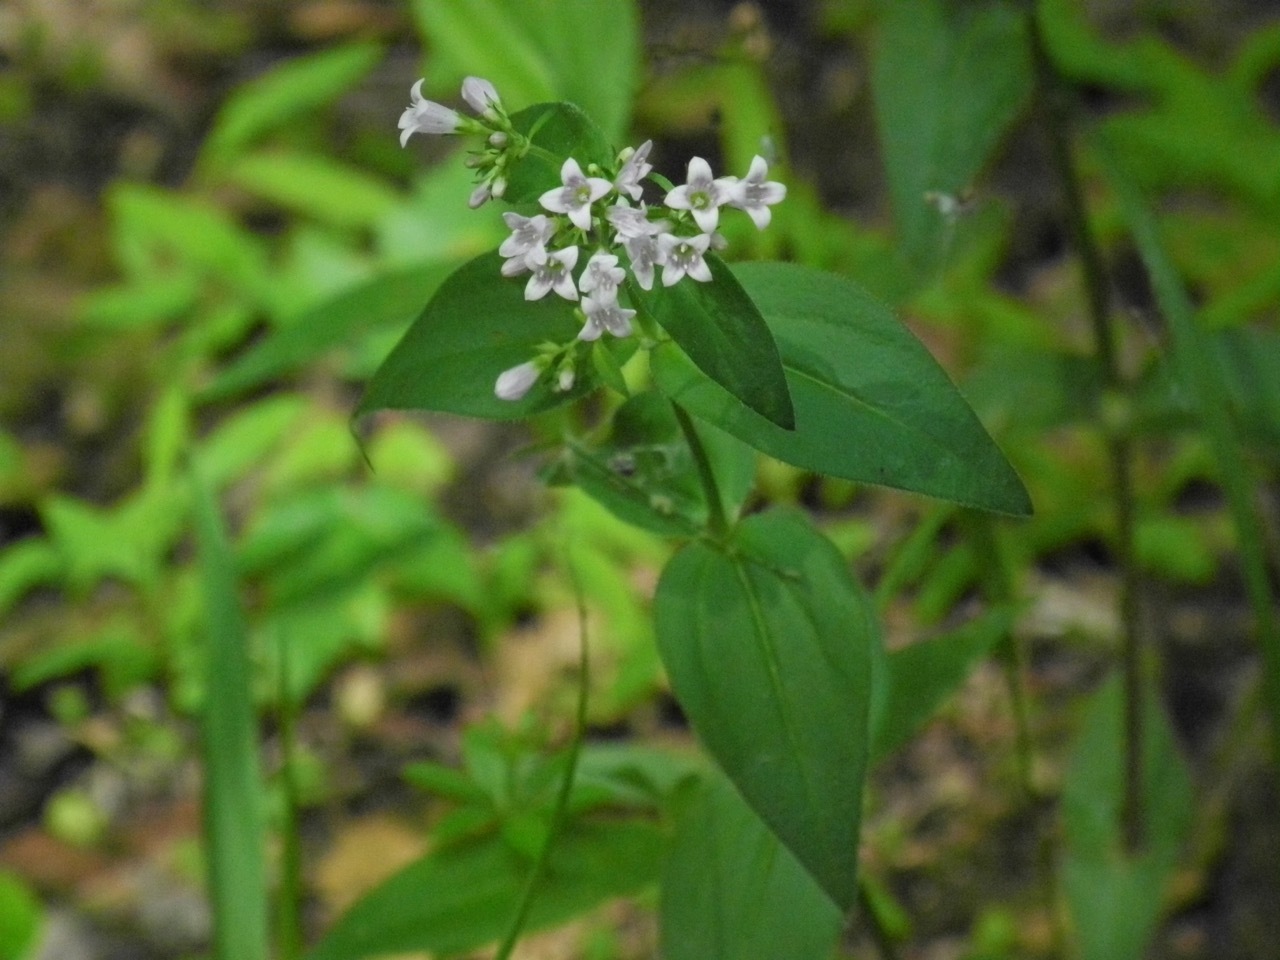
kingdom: Plantae
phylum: Tracheophyta
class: Magnoliopsida
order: Gentianales
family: Rubiaceae
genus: Houstonia
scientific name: Houstonia purpurea
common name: Summer bluet
